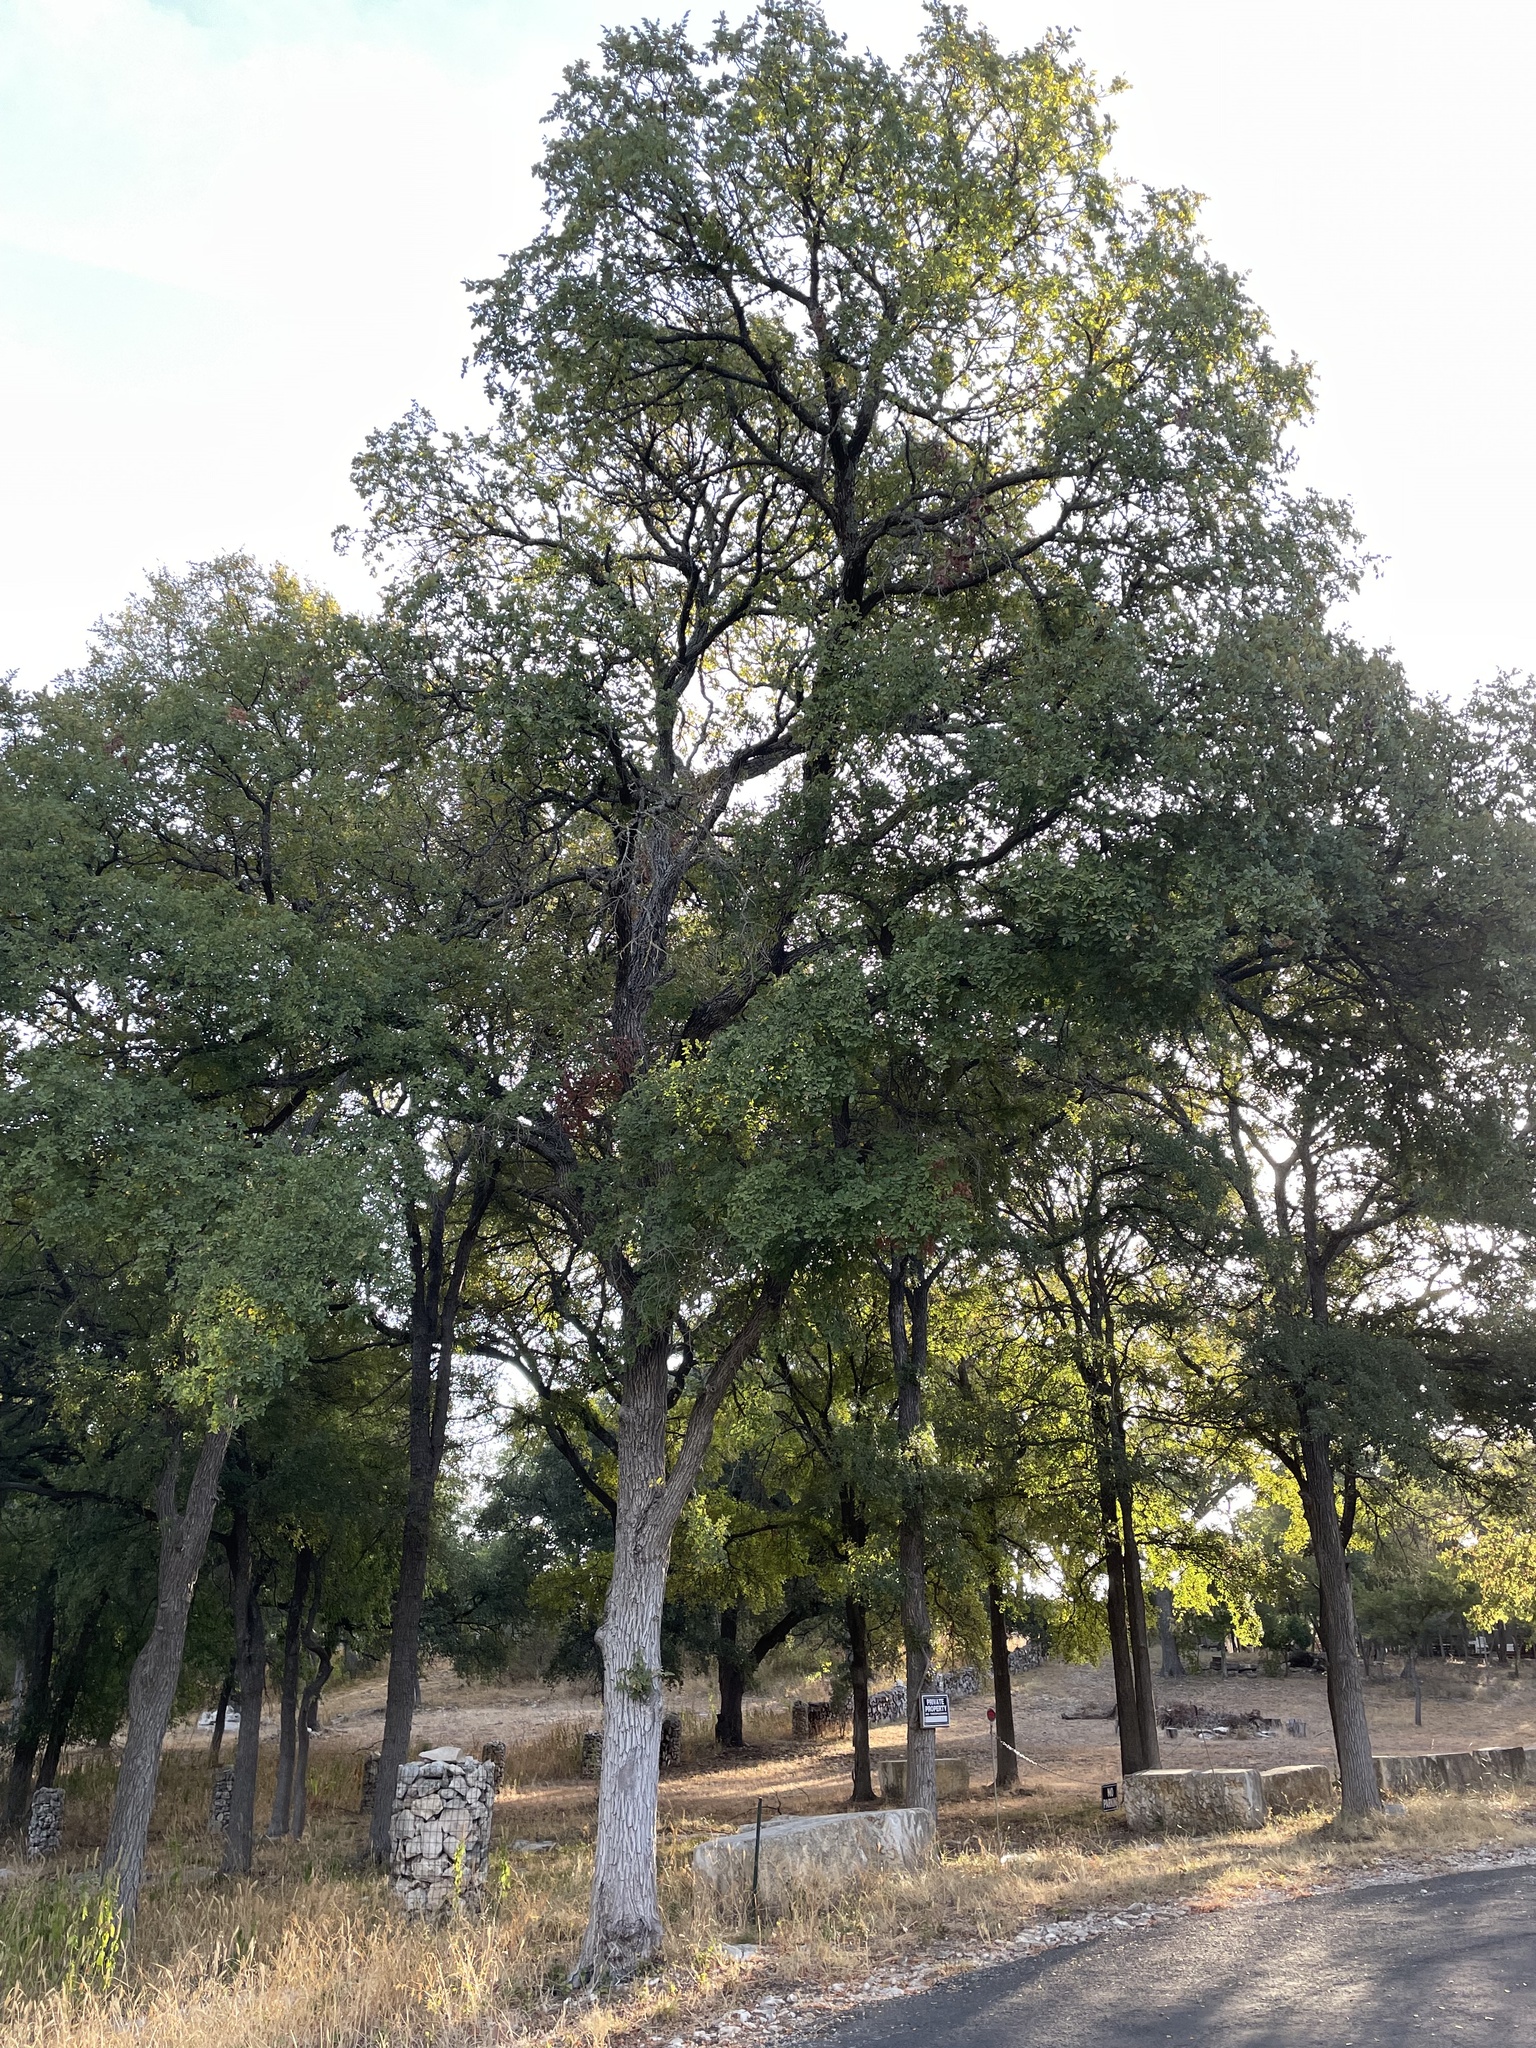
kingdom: Plantae
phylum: Tracheophyta
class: Magnoliopsida
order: Rosales
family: Ulmaceae
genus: Ulmus
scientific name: Ulmus crassifolia
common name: Basket elm
